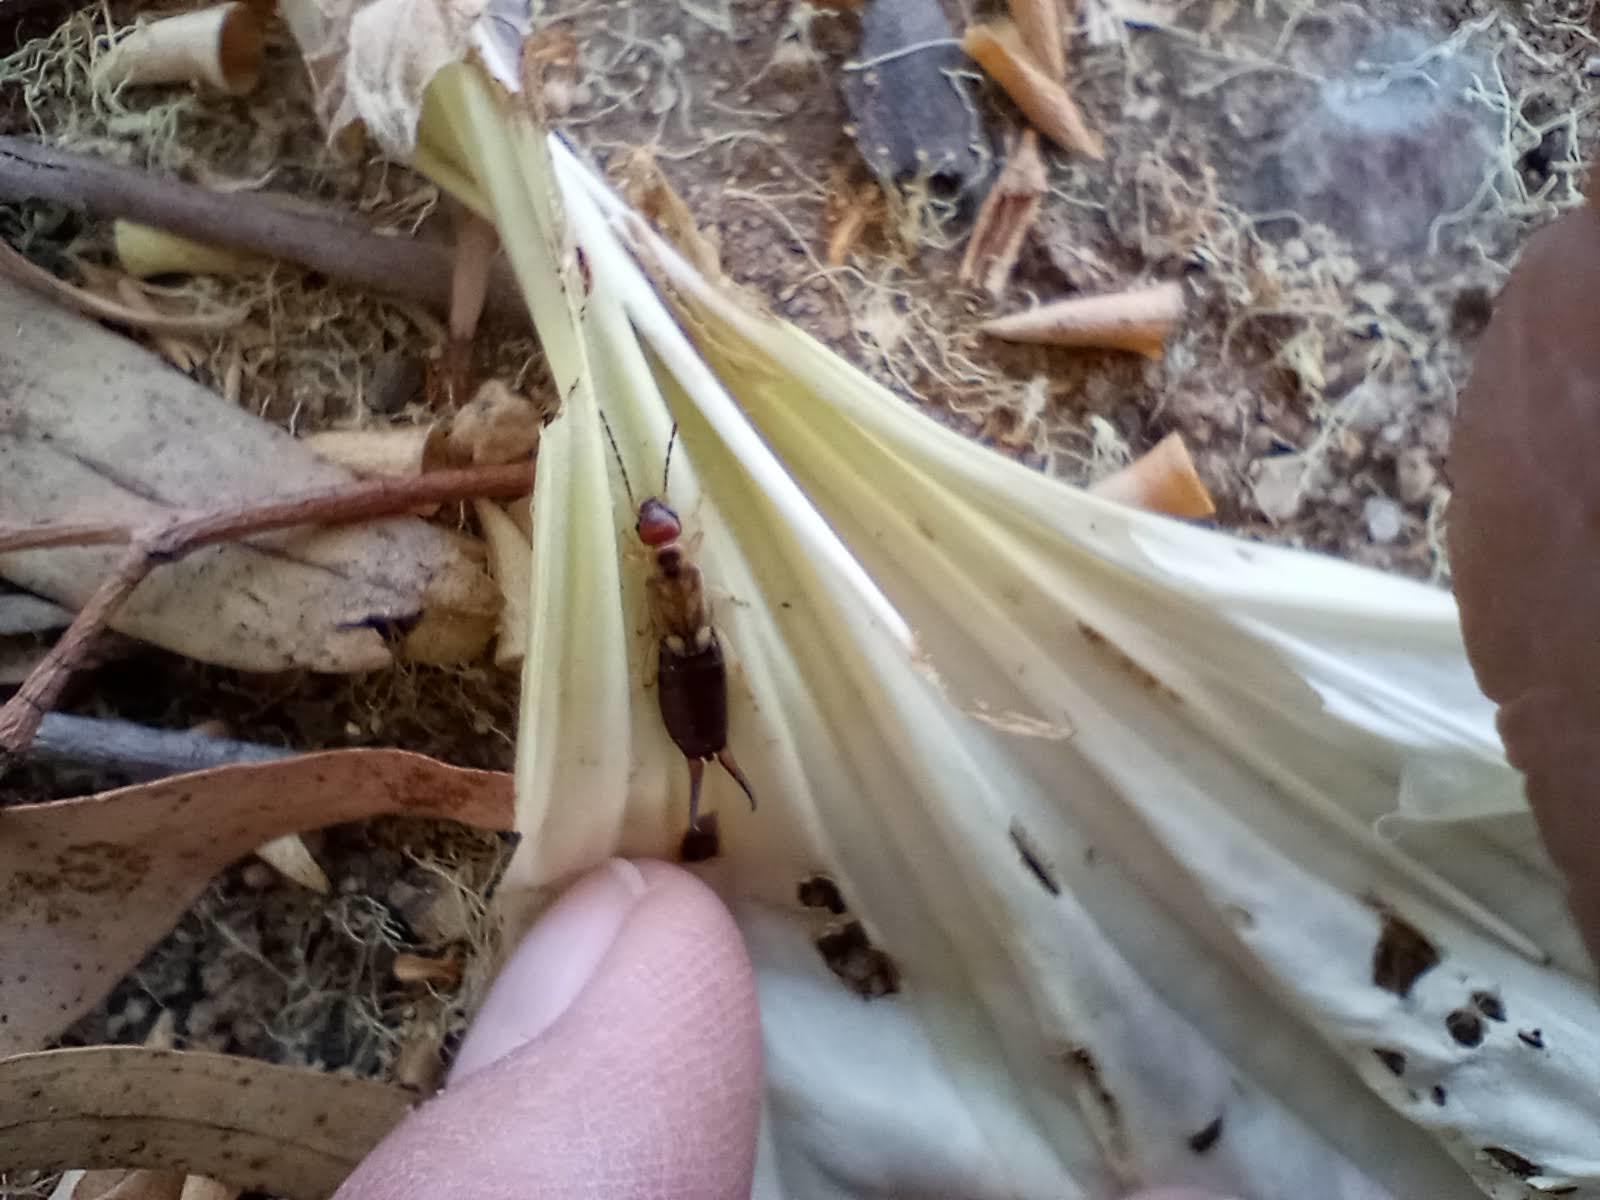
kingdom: Animalia
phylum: Arthropoda
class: Insecta
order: Dermaptera
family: Forficulidae
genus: Forficula
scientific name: Forficula
